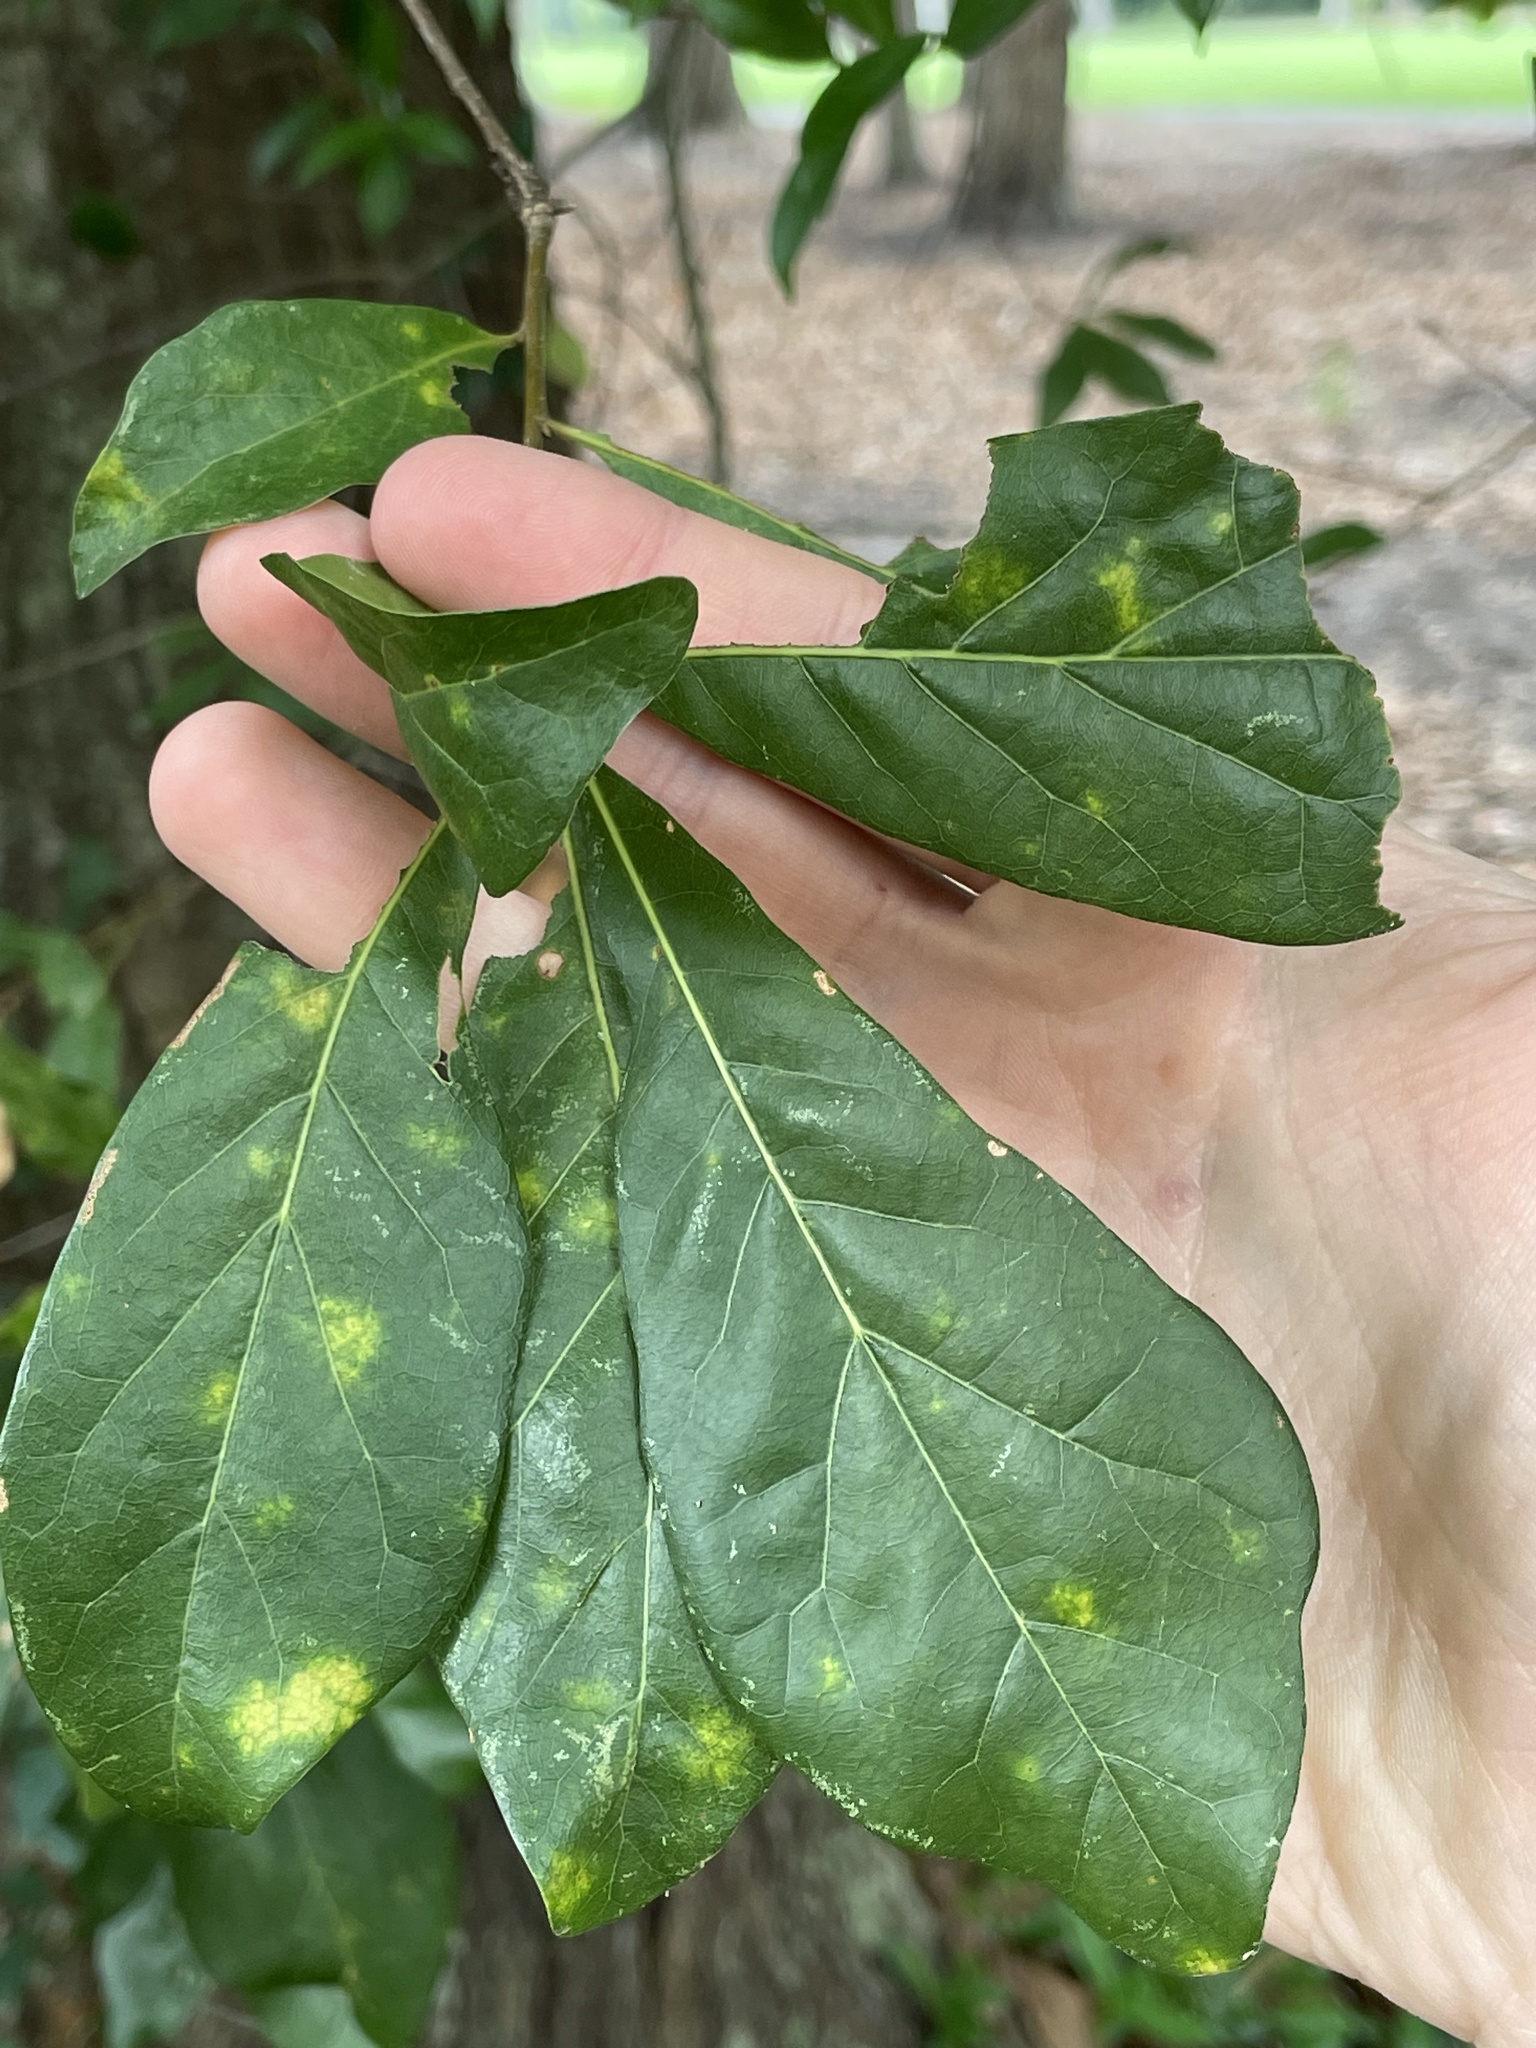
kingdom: Plantae
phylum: Tracheophyta
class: Magnoliopsida
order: Fagales
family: Fagaceae
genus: Quercus
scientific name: Quercus nigra
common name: Water oak
